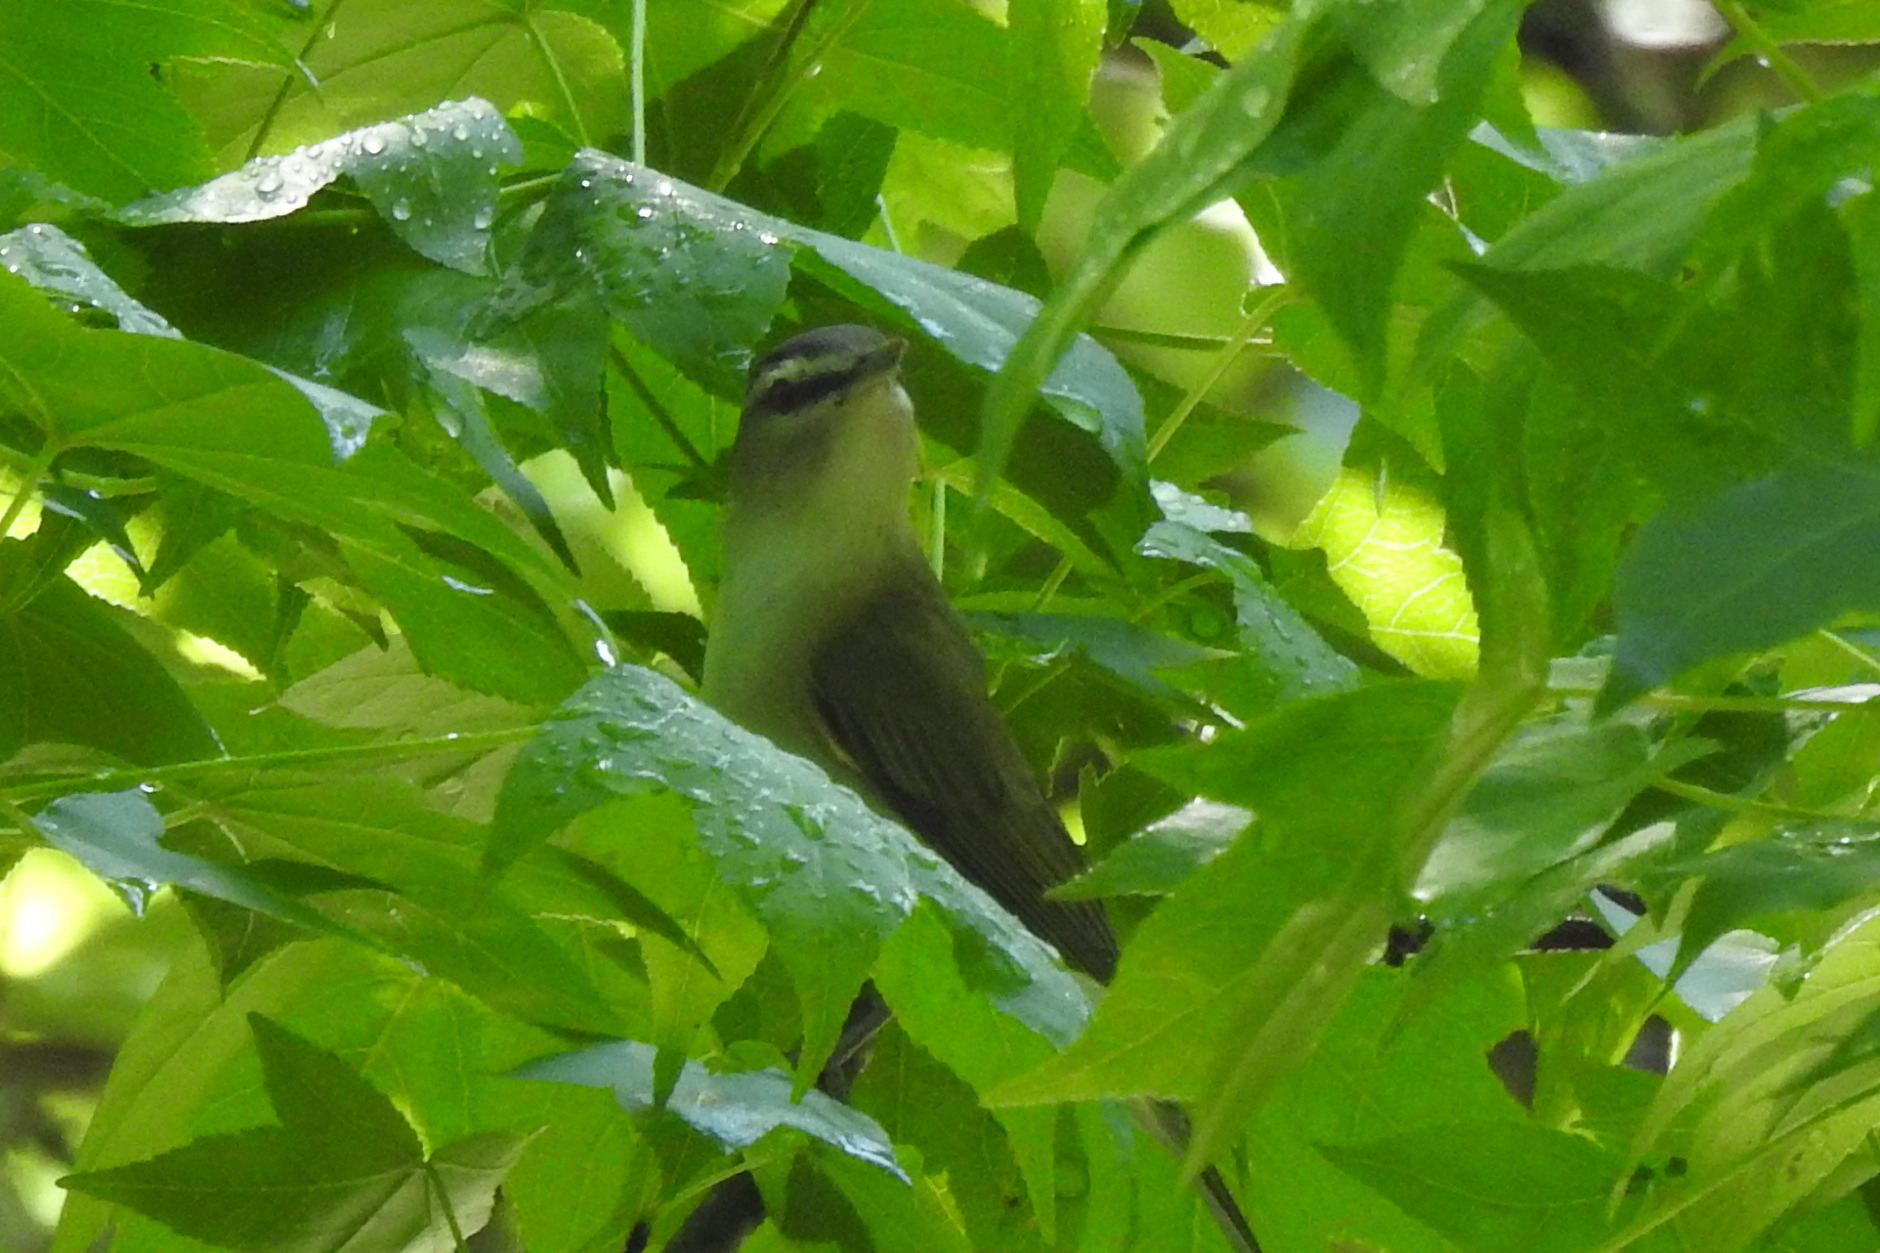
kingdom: Animalia
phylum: Chordata
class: Aves
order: Passeriformes
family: Vireonidae
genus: Vireo
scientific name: Vireo olivaceus
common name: Red-eyed vireo
